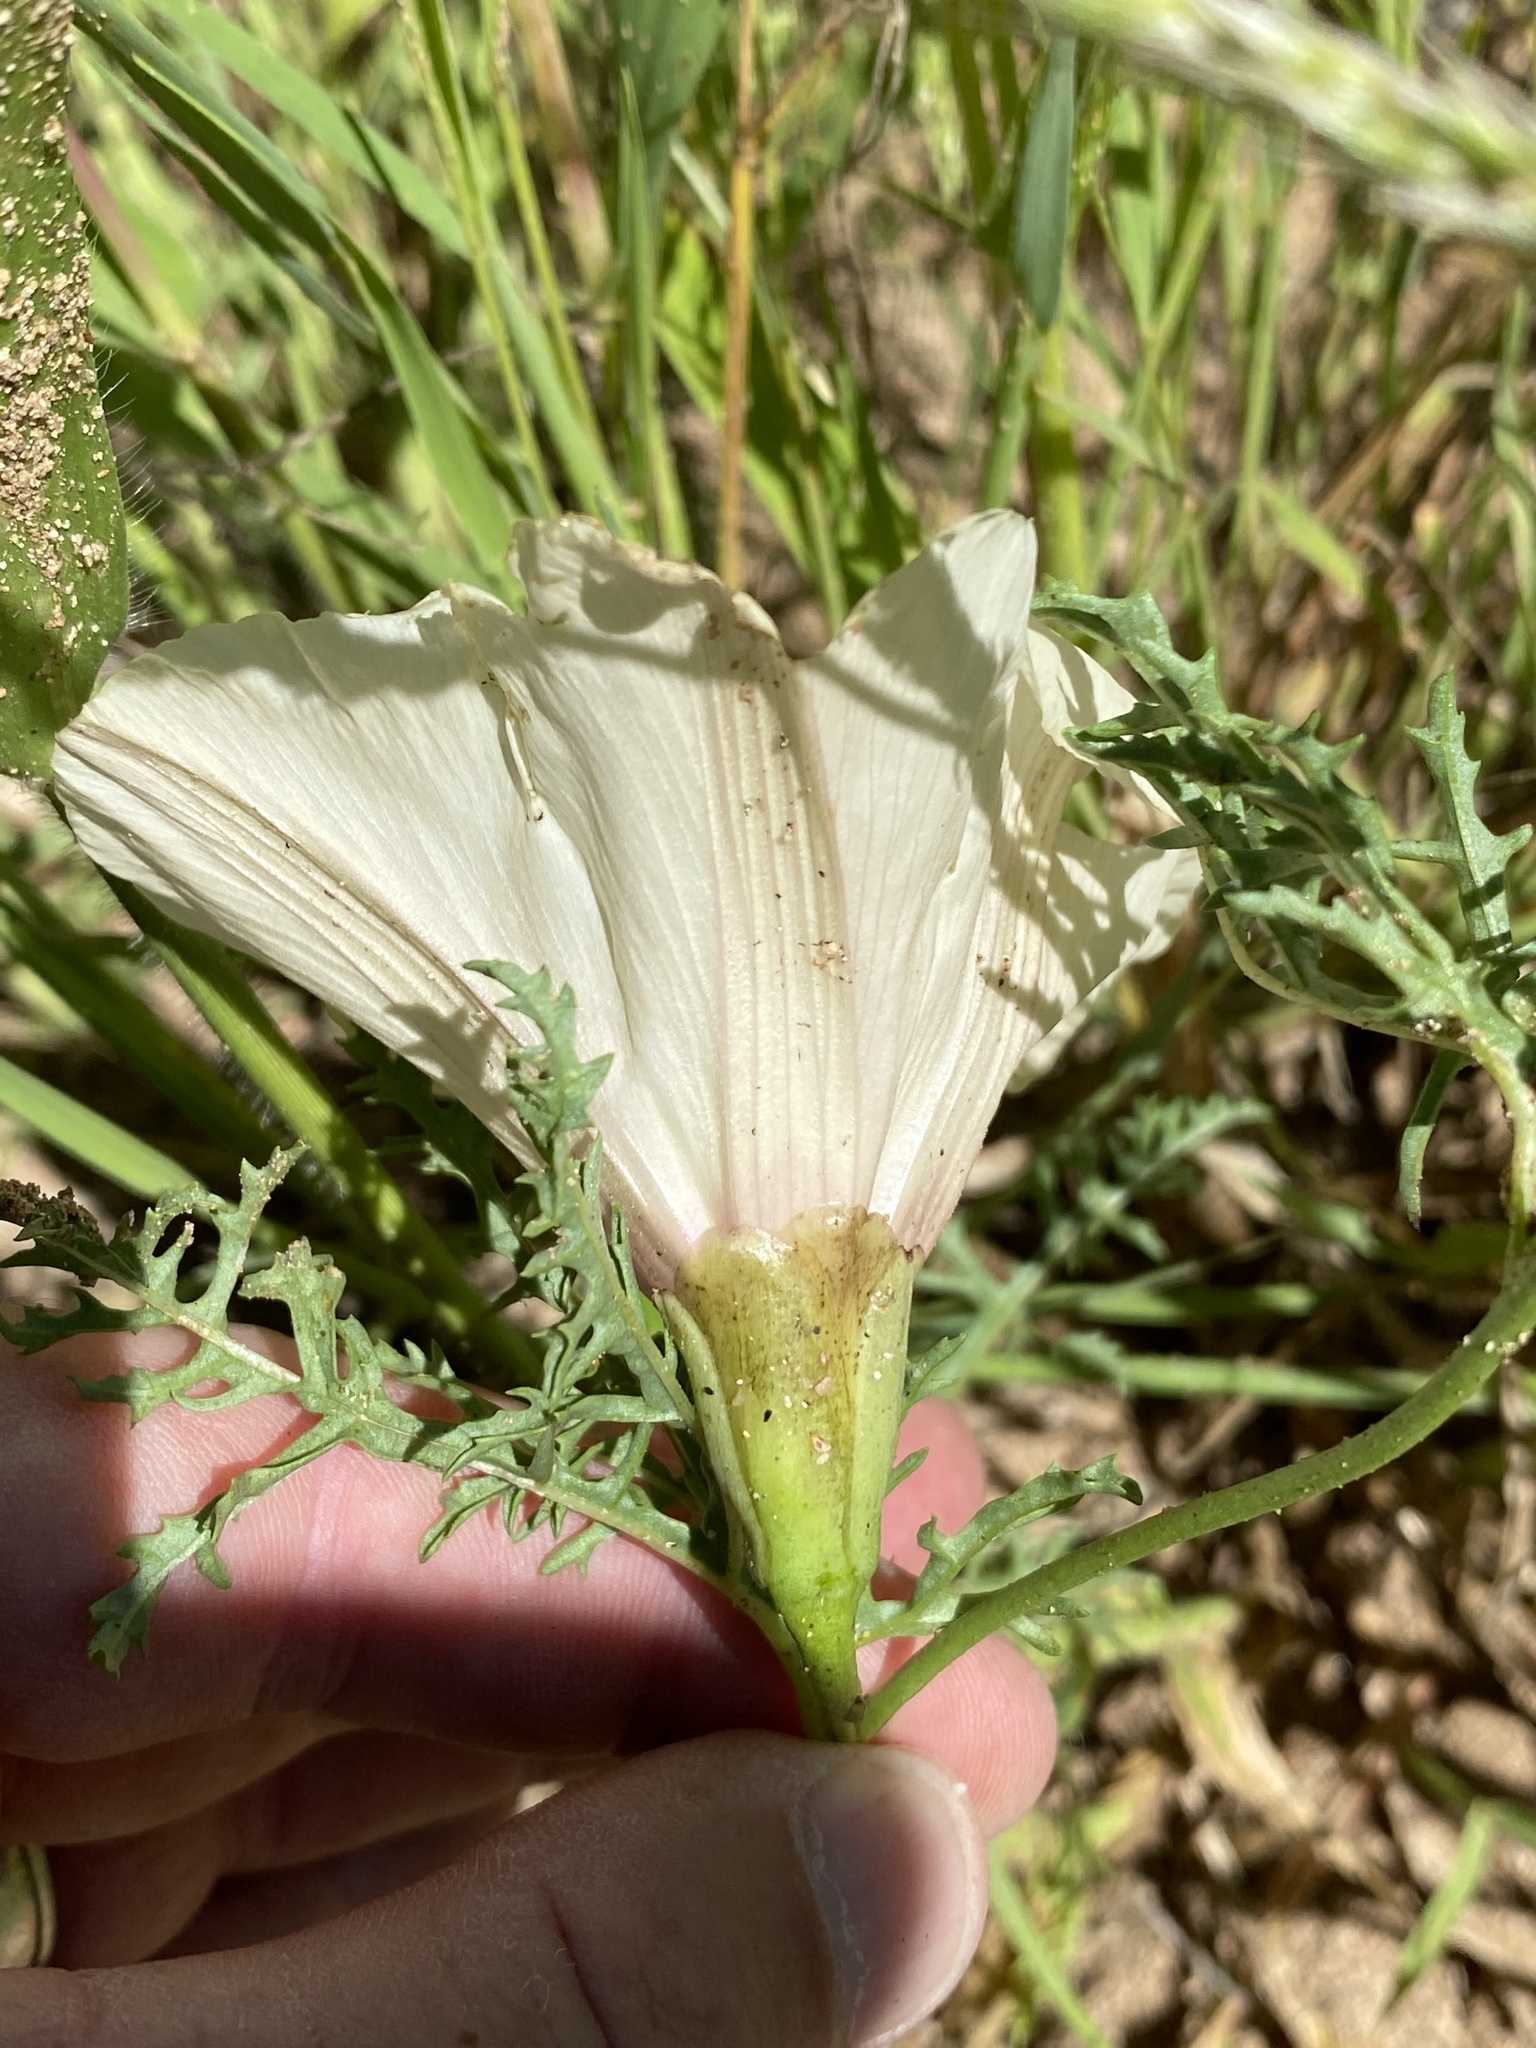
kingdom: Plantae
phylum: Tracheophyta
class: Magnoliopsida
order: Solanales
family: Convolvulaceae
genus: Distimake
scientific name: Distimake bipinnatipartitus
